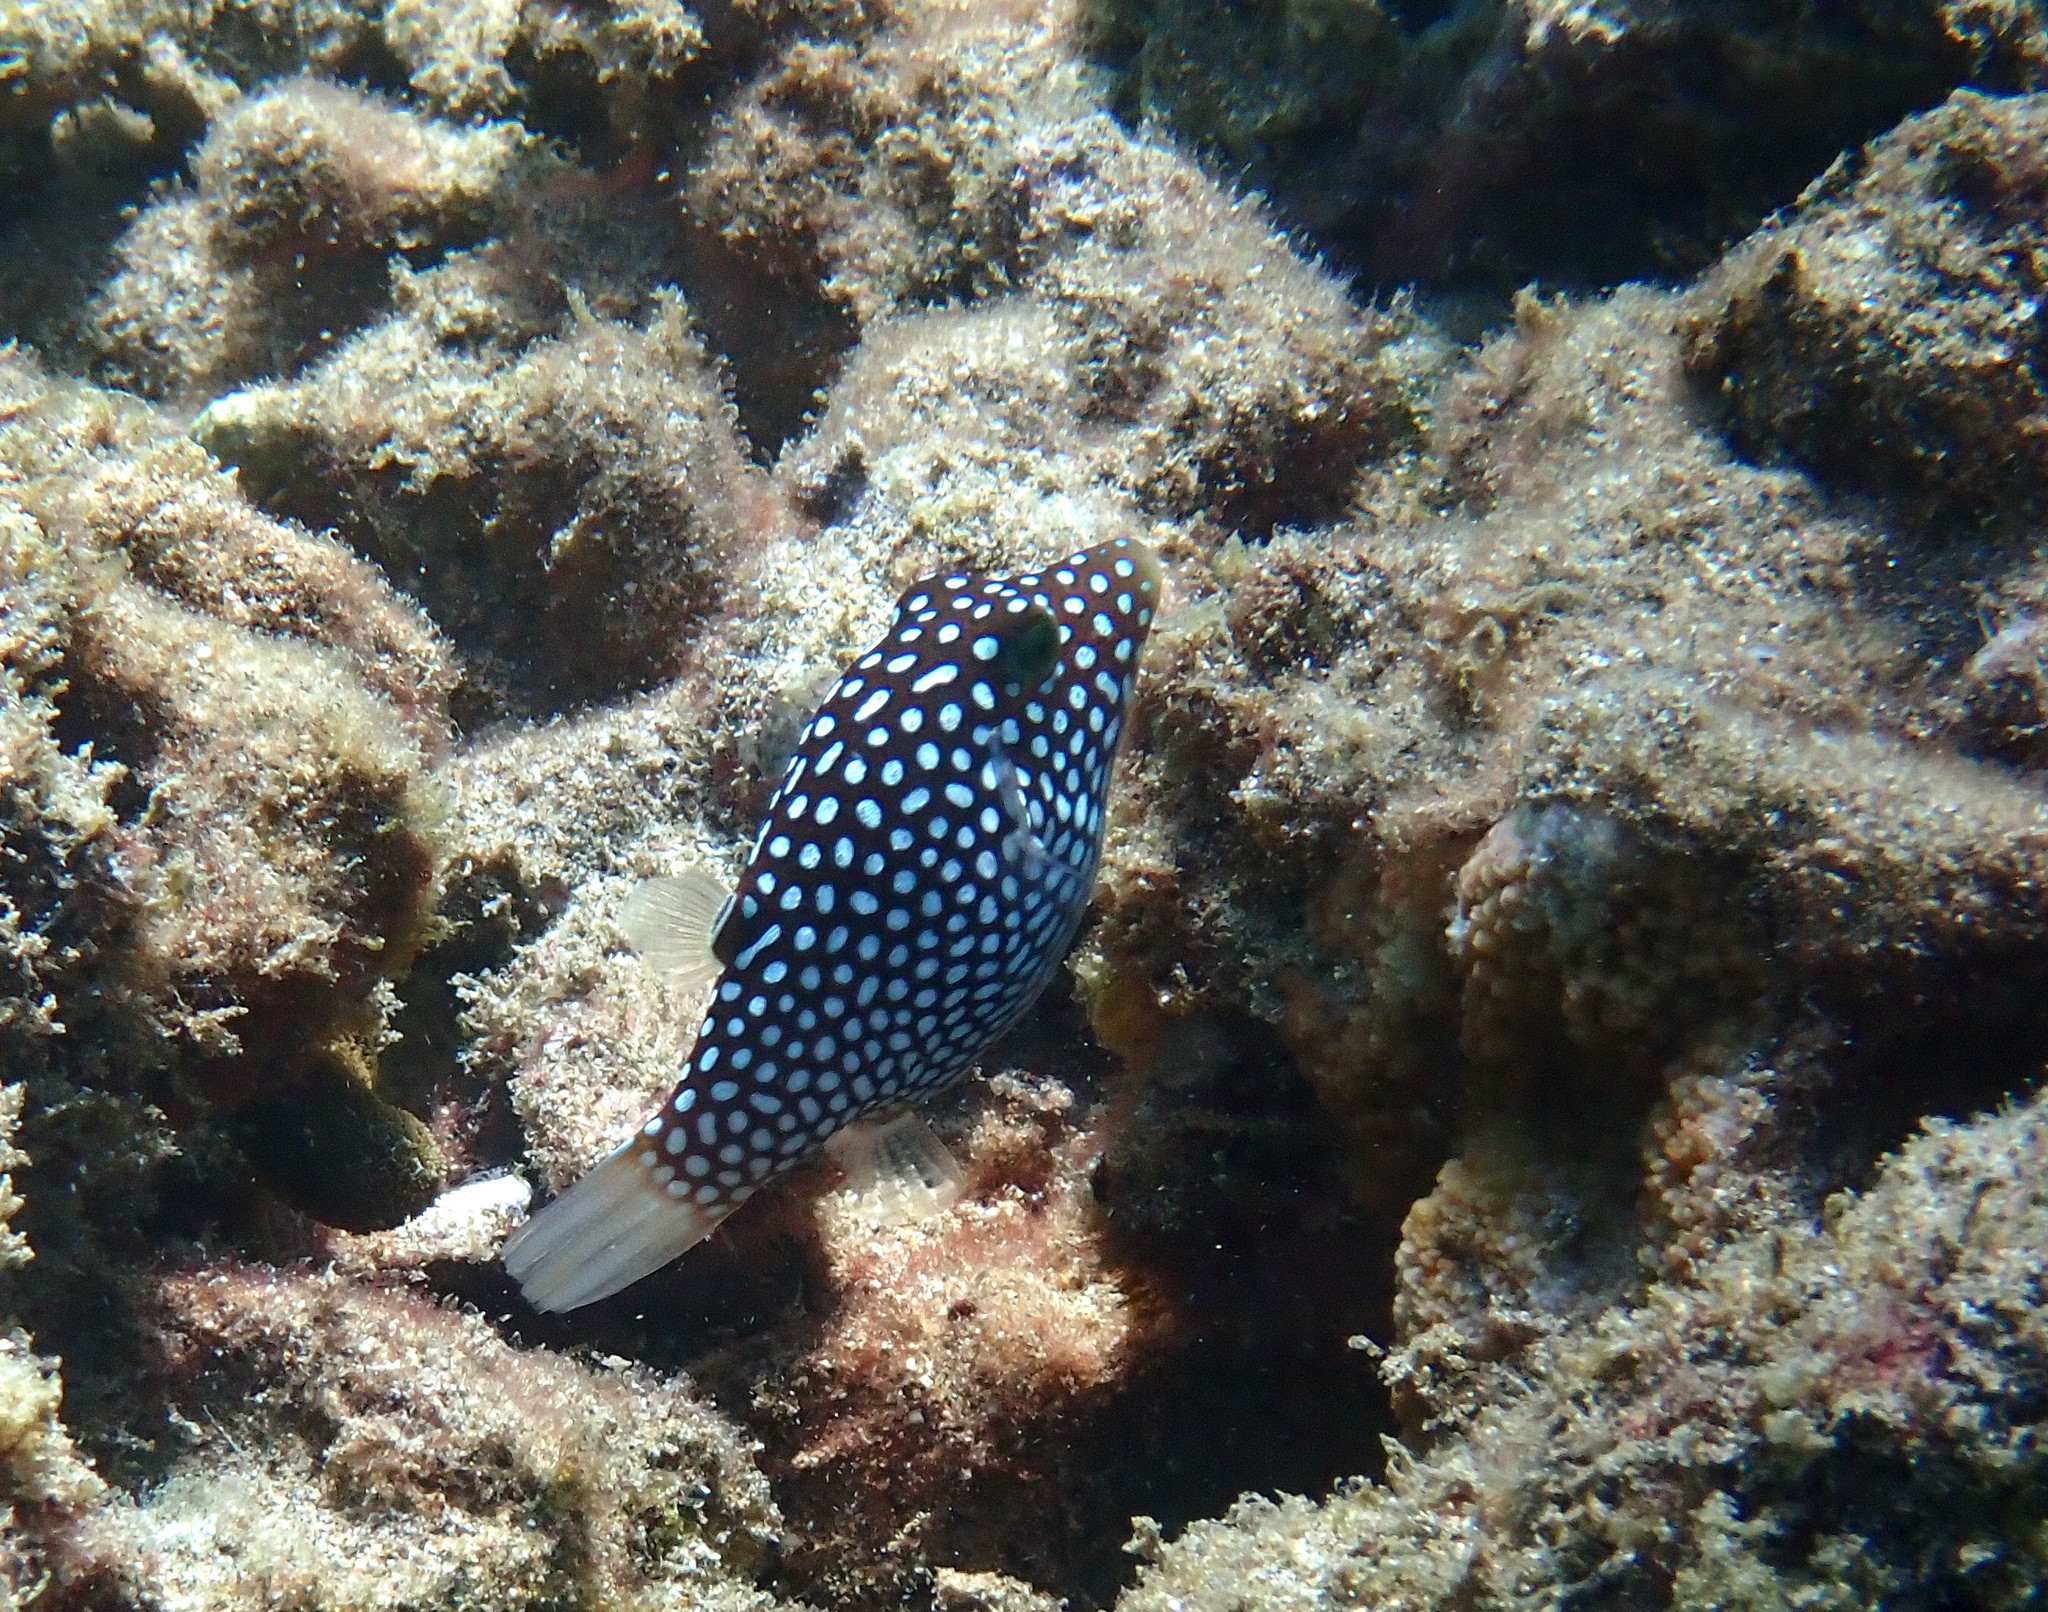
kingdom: Animalia
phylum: Chordata
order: Tetraodontiformes
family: Tetraodontidae
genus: Canthigaster
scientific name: Canthigaster jactator
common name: Hawaiian whitespotted toby
